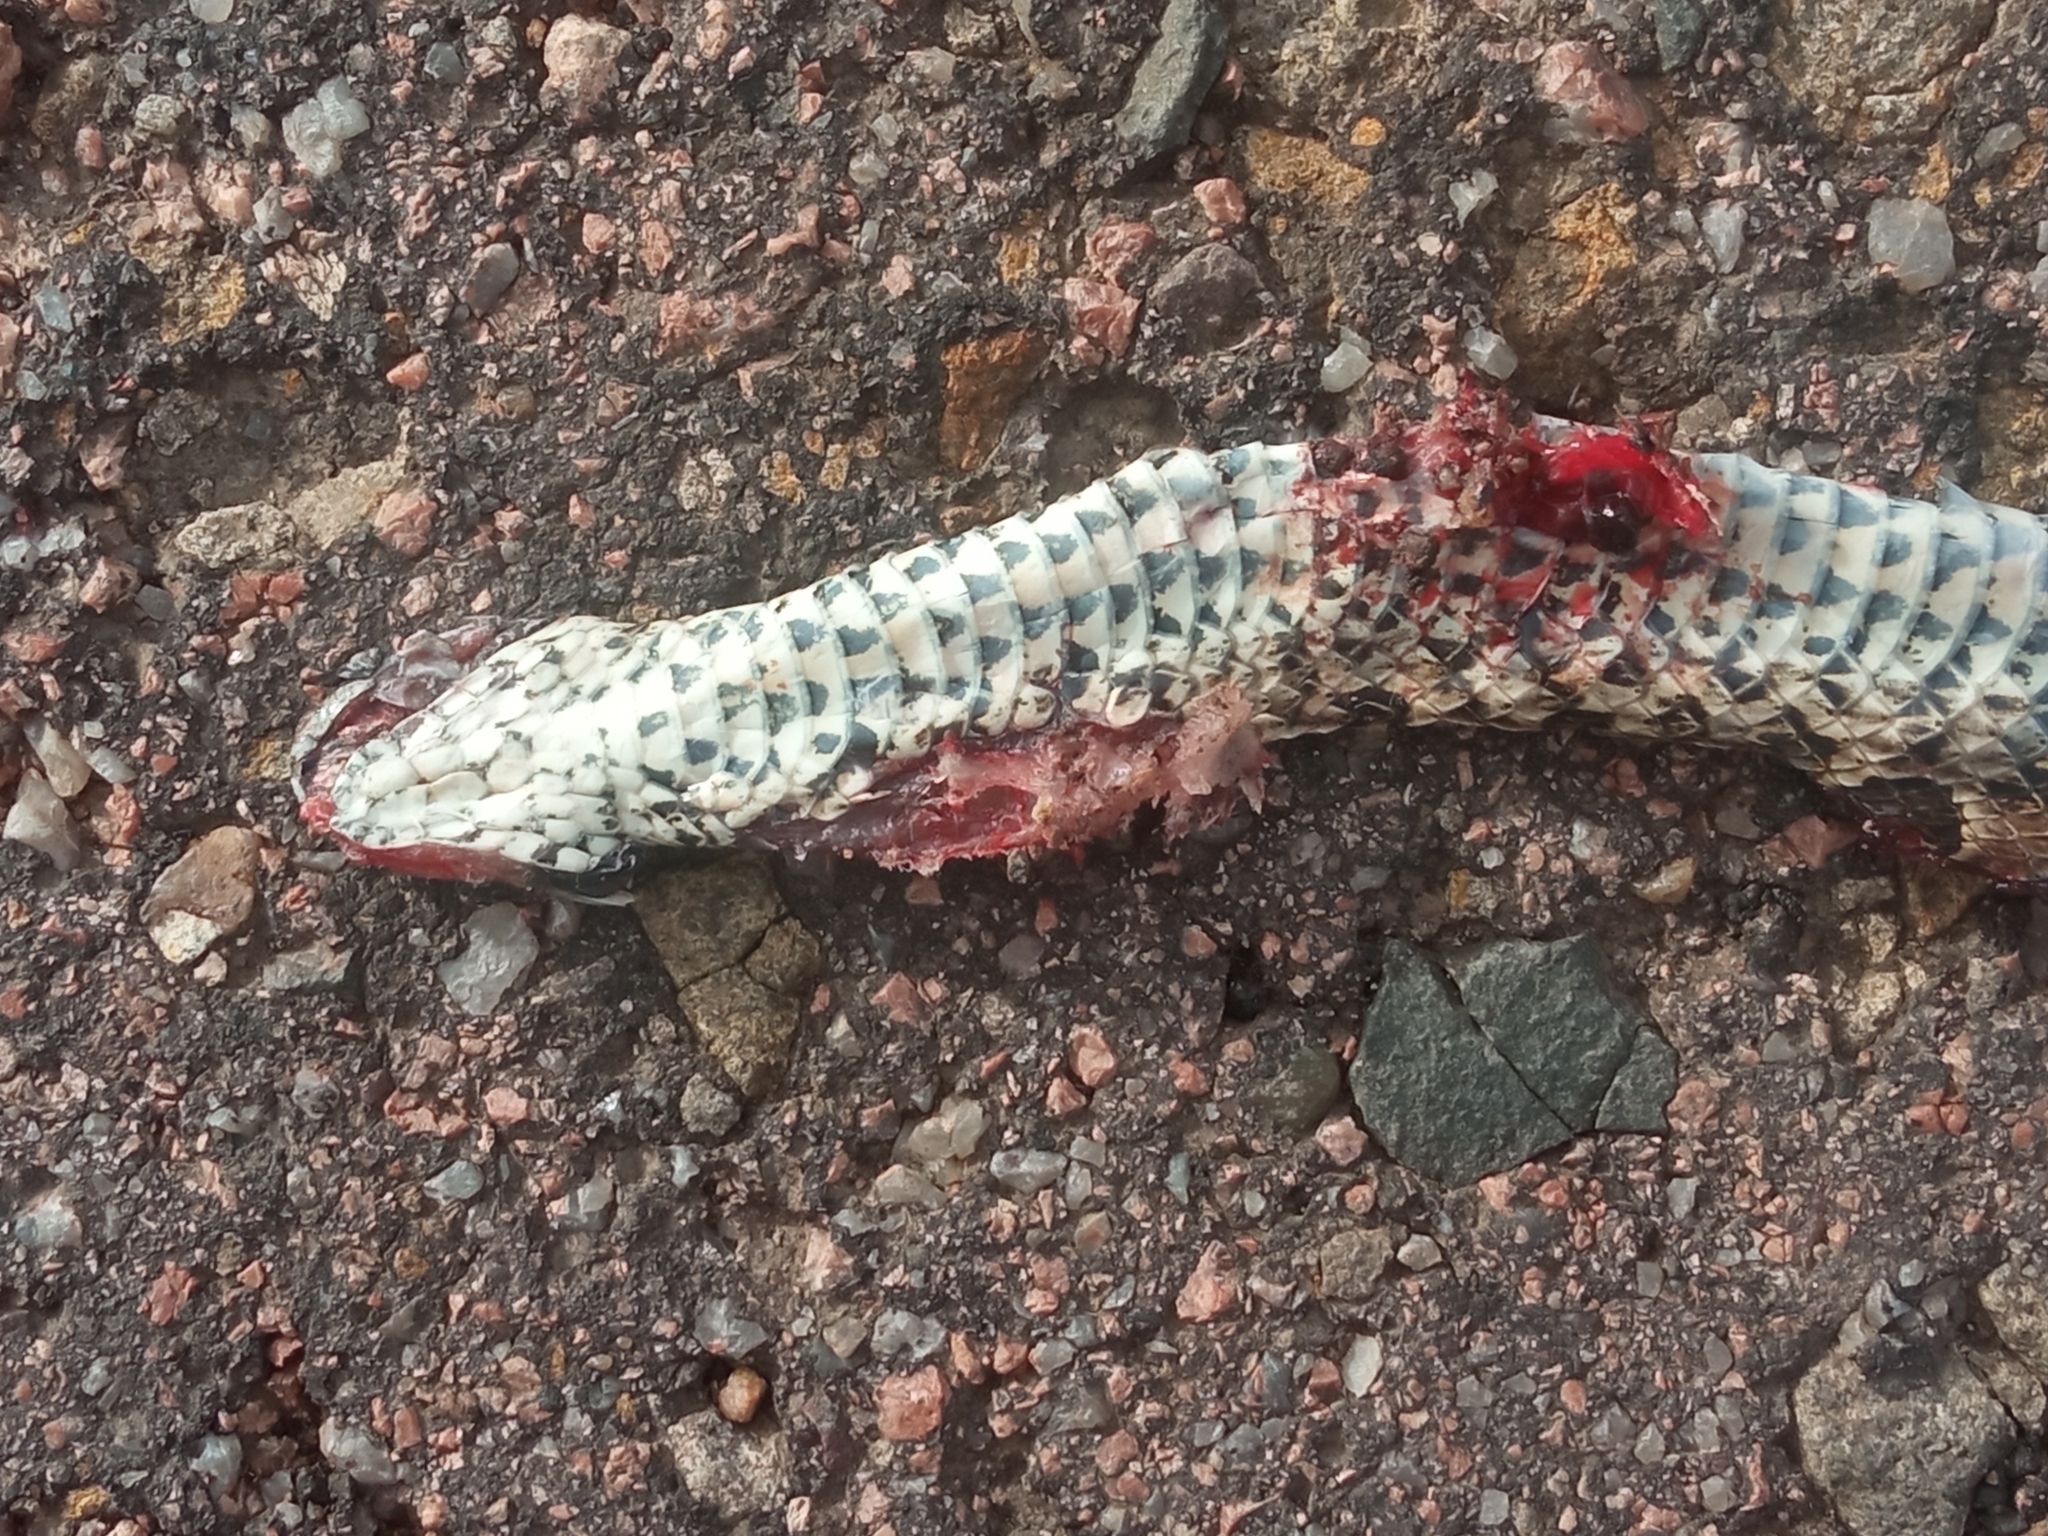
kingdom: Animalia
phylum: Chordata
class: Squamata
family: Colubridae
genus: Tachymenis
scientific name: Tachymenis
